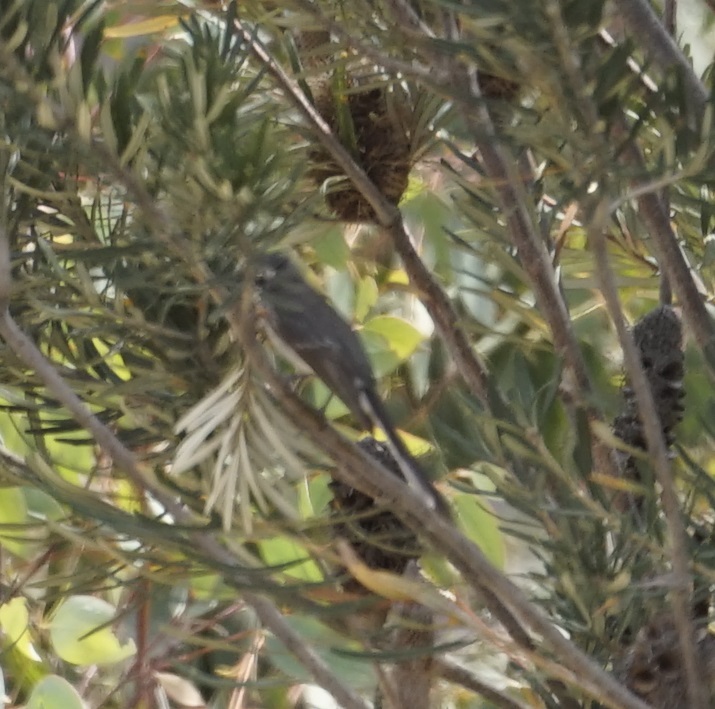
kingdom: Animalia
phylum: Chordata
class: Aves
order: Passeriformes
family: Rhipiduridae
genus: Rhipidura
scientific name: Rhipidura albiscapa
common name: Grey fantail
